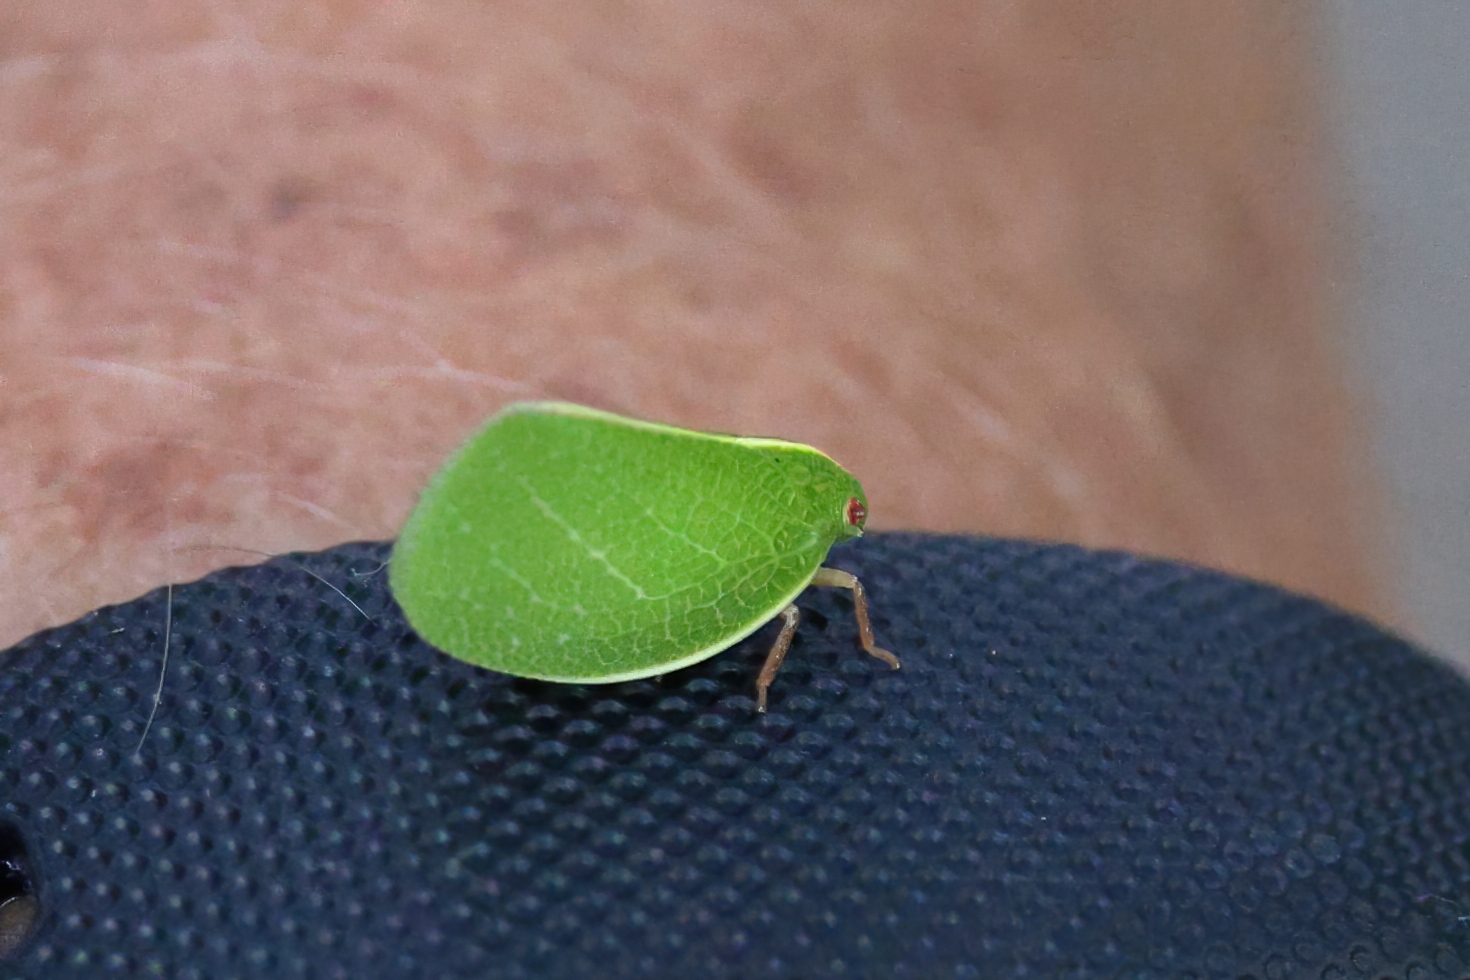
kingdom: Animalia
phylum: Arthropoda
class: Insecta
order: Hemiptera
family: Acanaloniidae
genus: Acanalonia
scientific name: Acanalonia servillei
